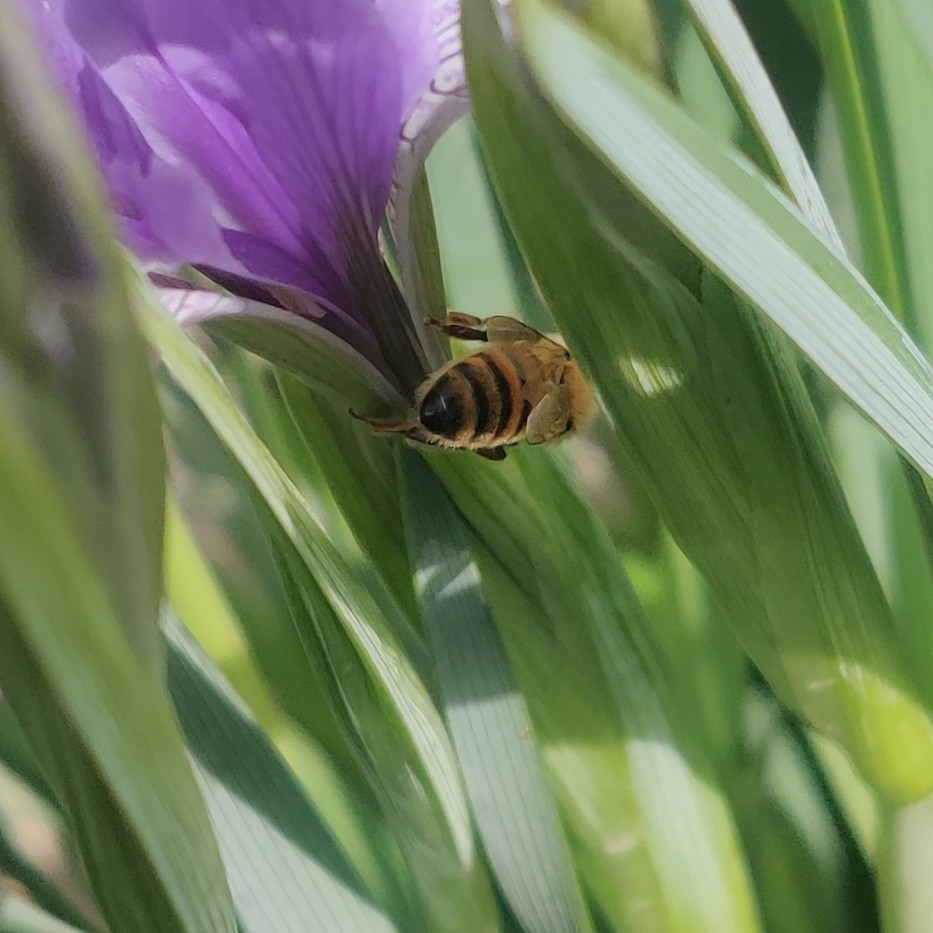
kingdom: Animalia
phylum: Arthropoda
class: Insecta
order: Hymenoptera
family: Apidae
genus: Apis
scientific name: Apis mellifera
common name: Honey bee
